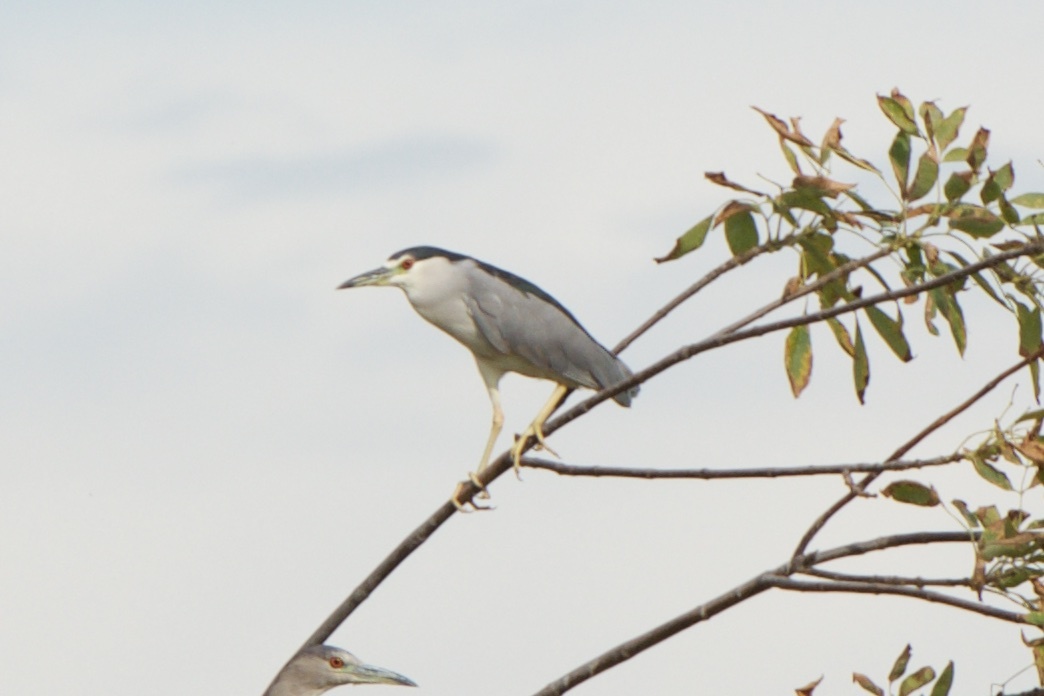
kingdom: Animalia
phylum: Chordata
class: Aves
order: Pelecaniformes
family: Ardeidae
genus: Nycticorax
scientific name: Nycticorax nycticorax
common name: Black-crowned night heron
